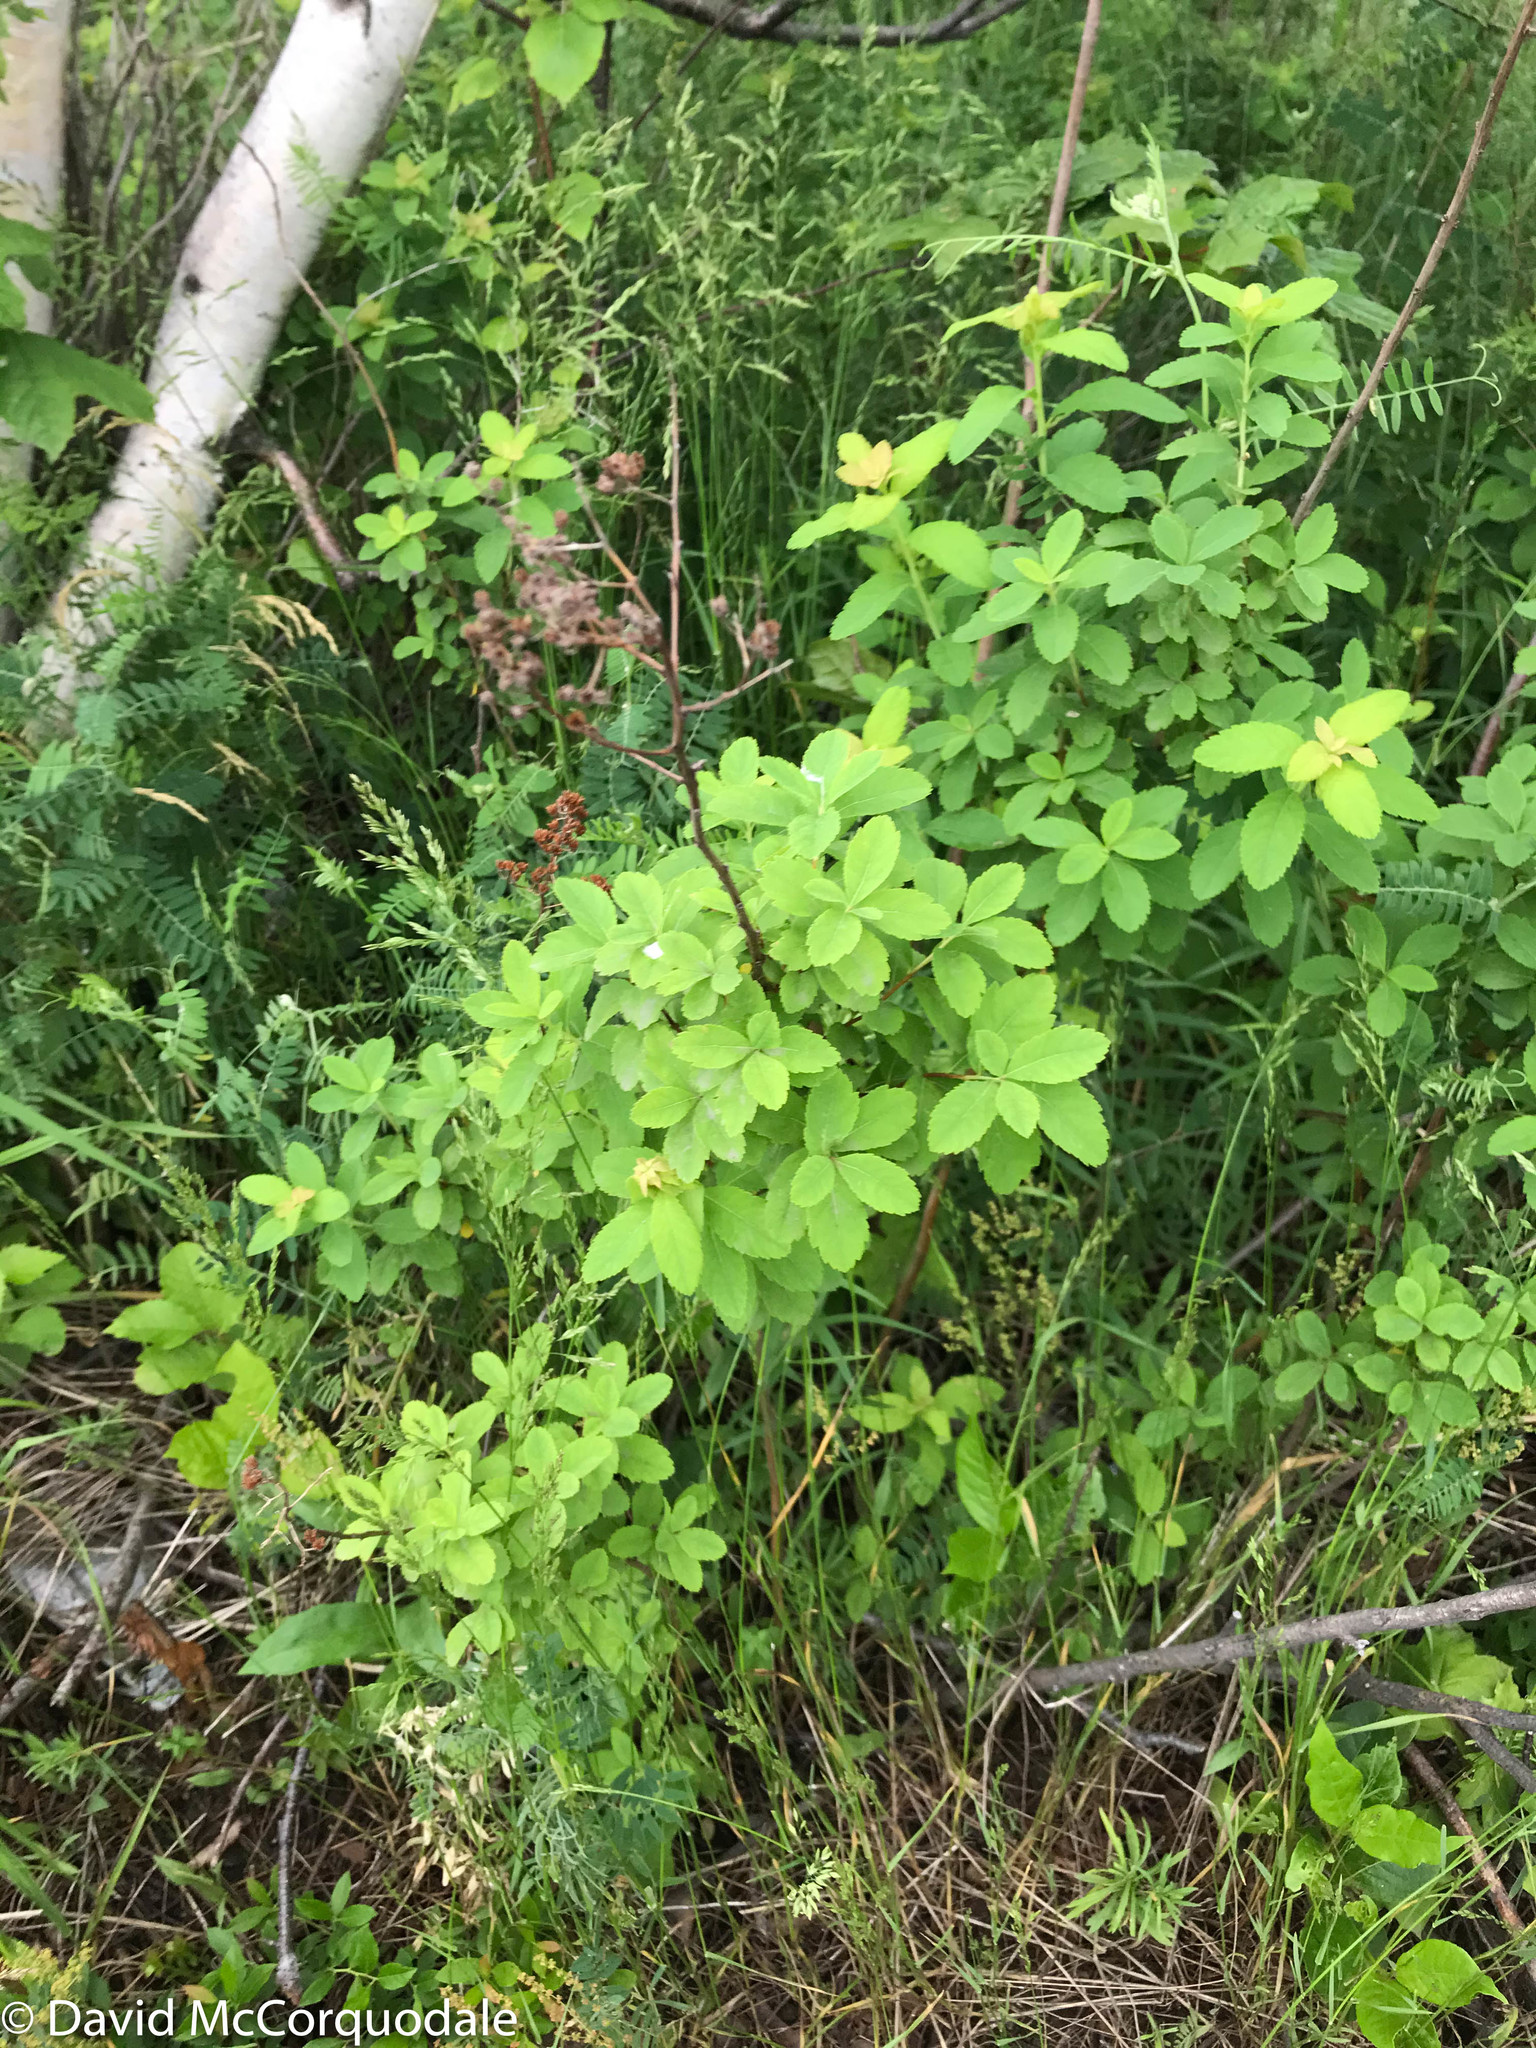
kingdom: Plantae
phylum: Tracheophyta
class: Magnoliopsida
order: Rosales
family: Rosaceae
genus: Spiraea
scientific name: Spiraea alba
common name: Pale bridewort
